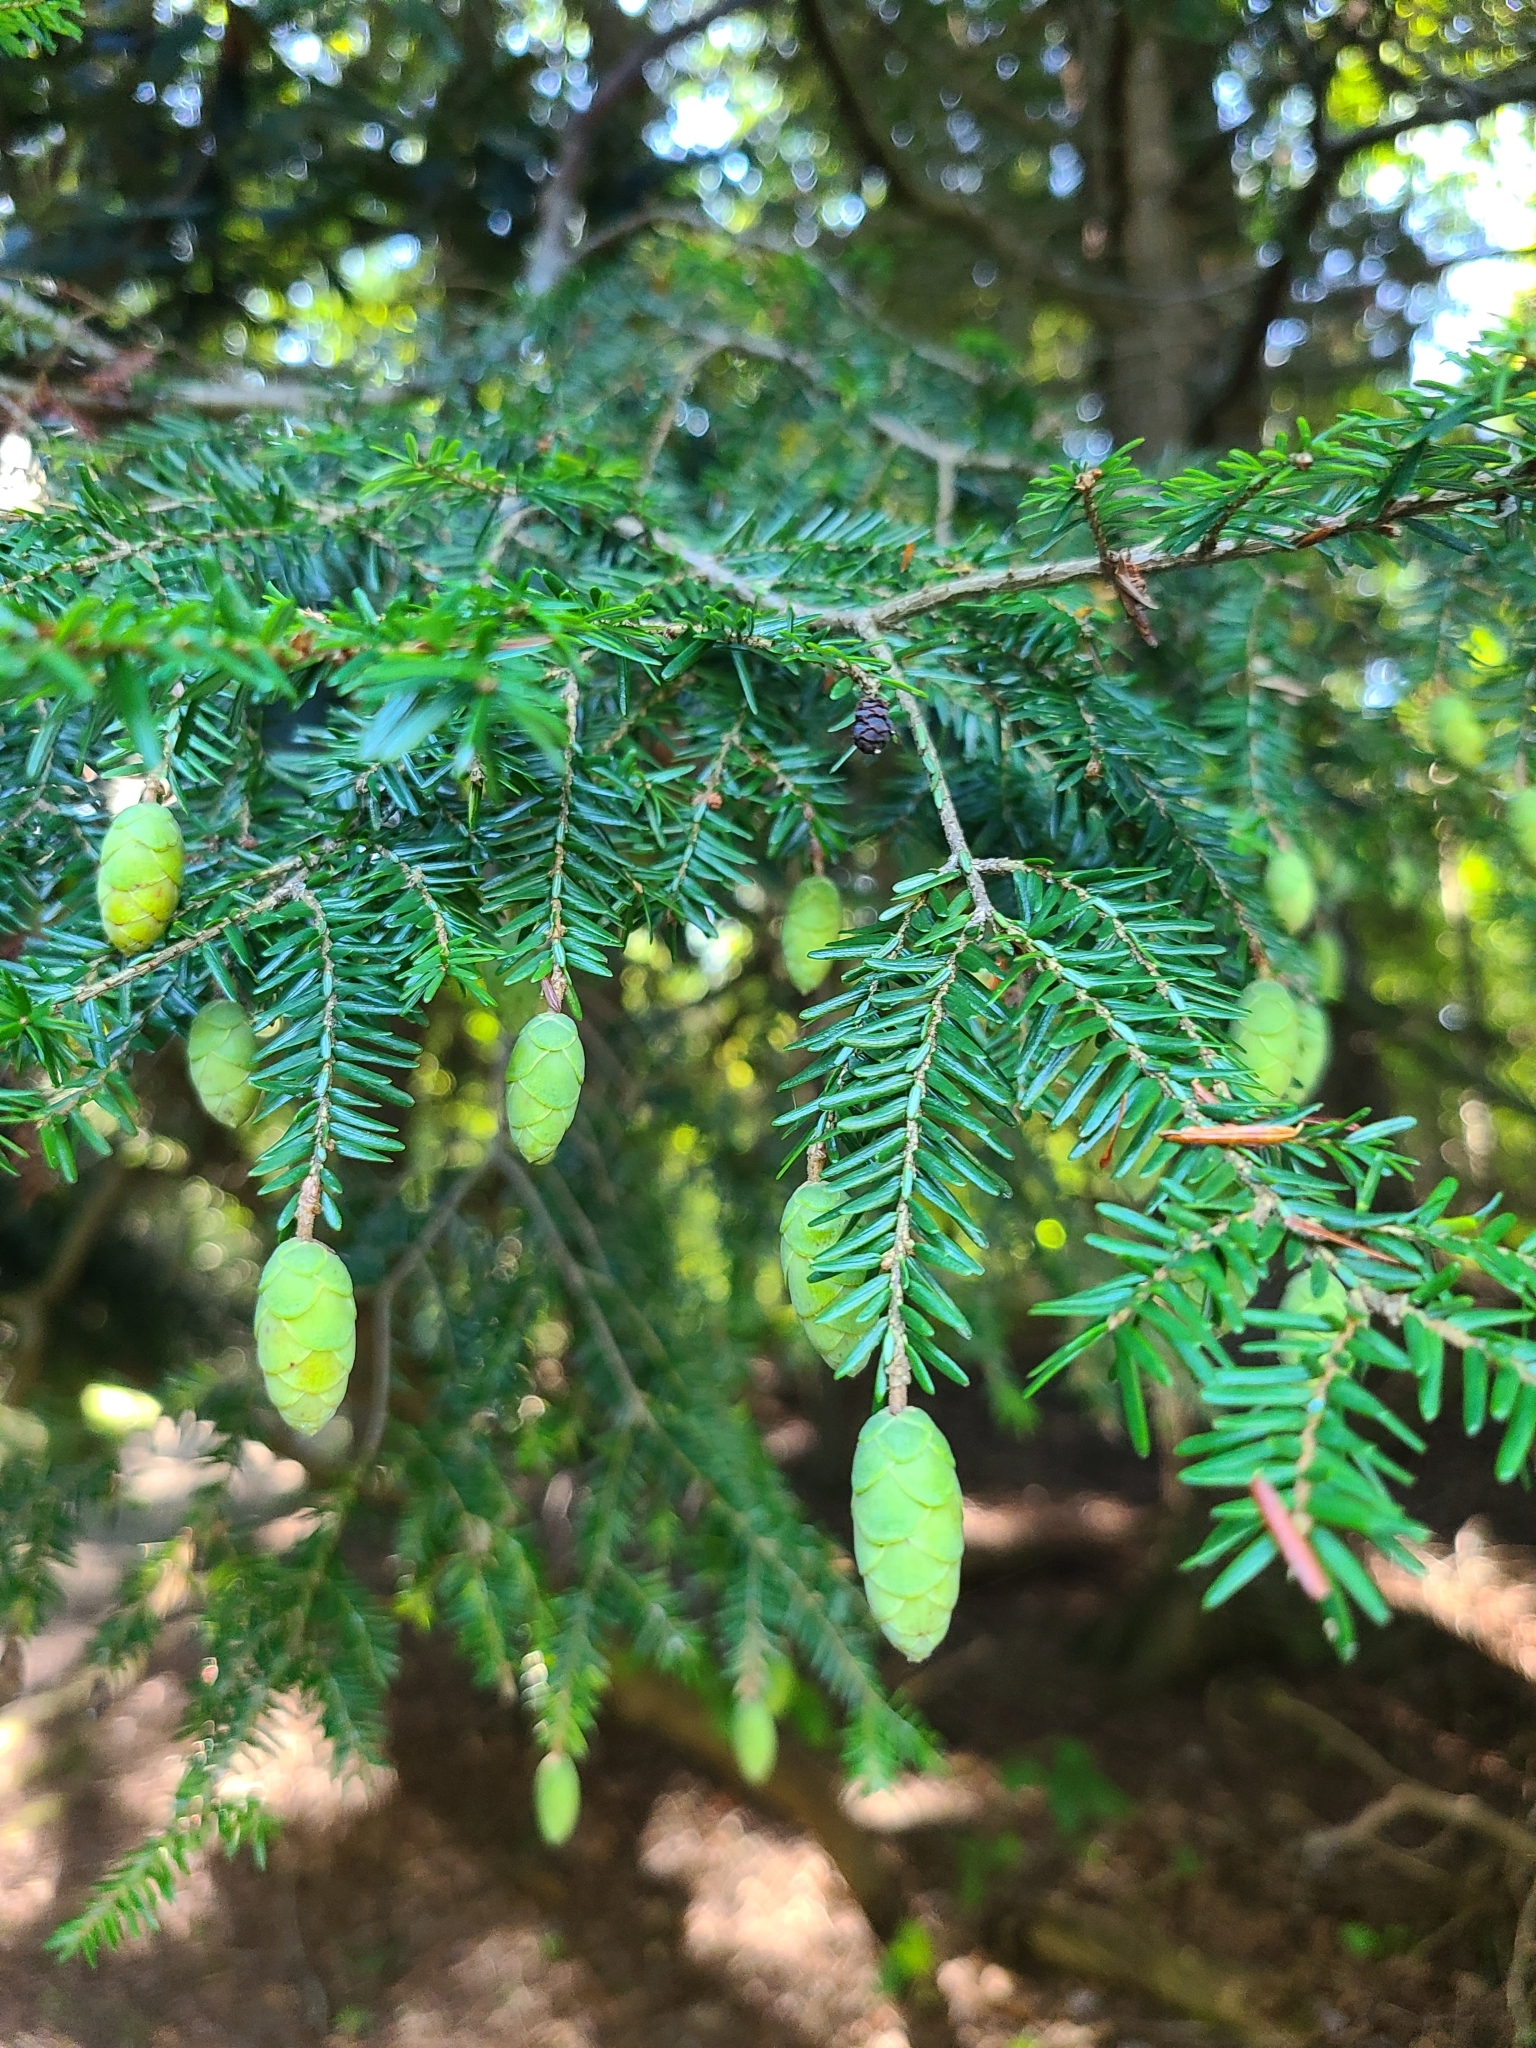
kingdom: Plantae
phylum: Tracheophyta
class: Pinopsida
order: Pinales
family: Pinaceae
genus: Tsuga
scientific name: Tsuga canadensis
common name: Eastern hemlock
